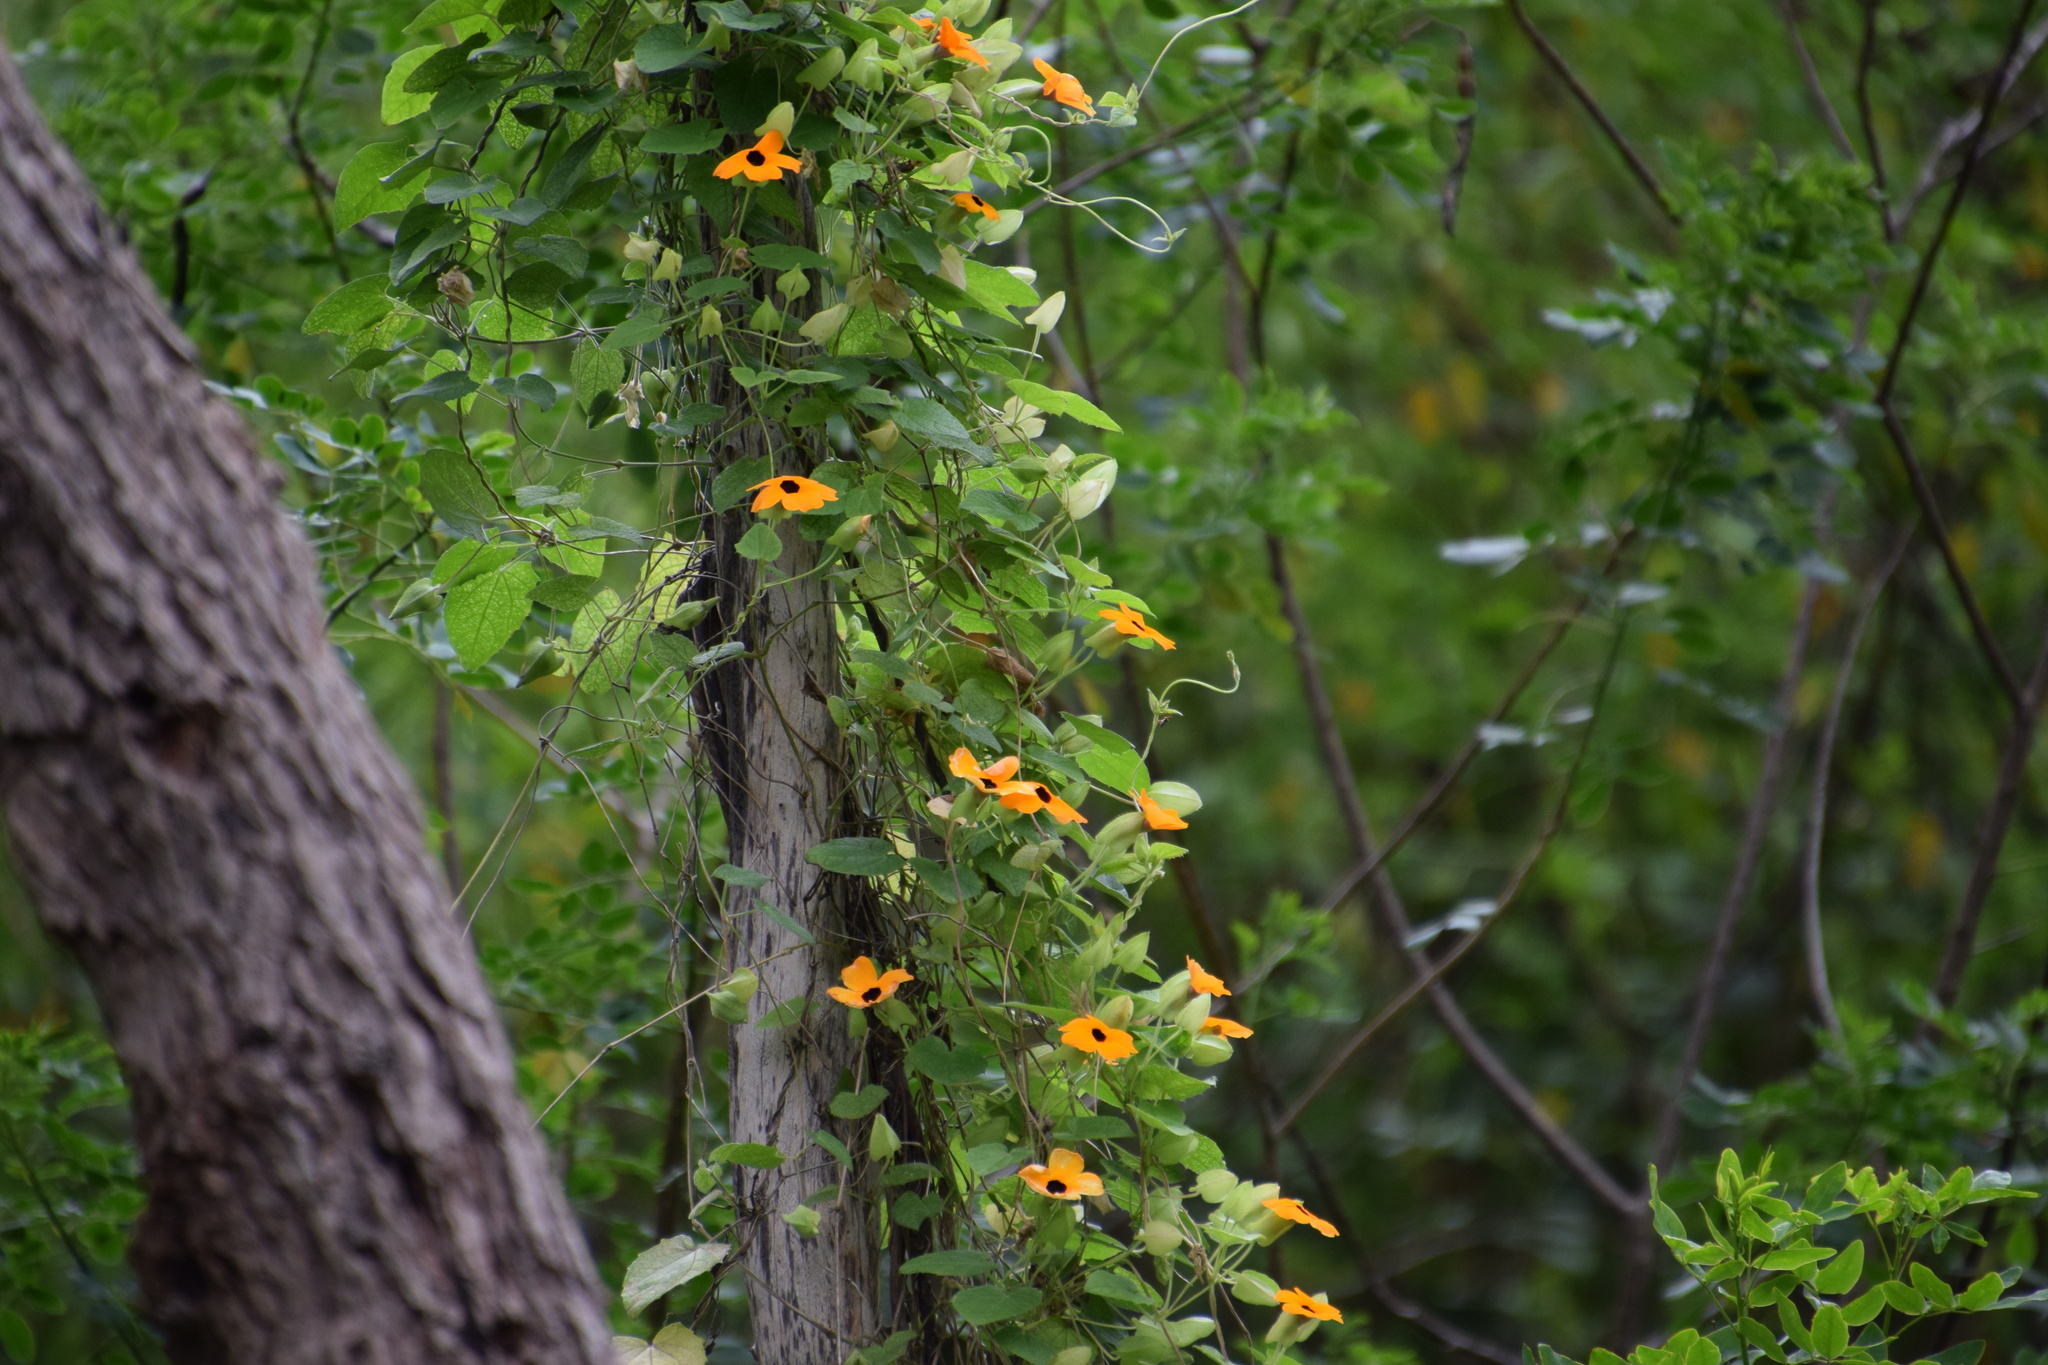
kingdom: Plantae
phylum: Tracheophyta
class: Magnoliopsida
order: Lamiales
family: Acanthaceae
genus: Thunbergia
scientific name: Thunbergia alata
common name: Blackeyed susan vine
